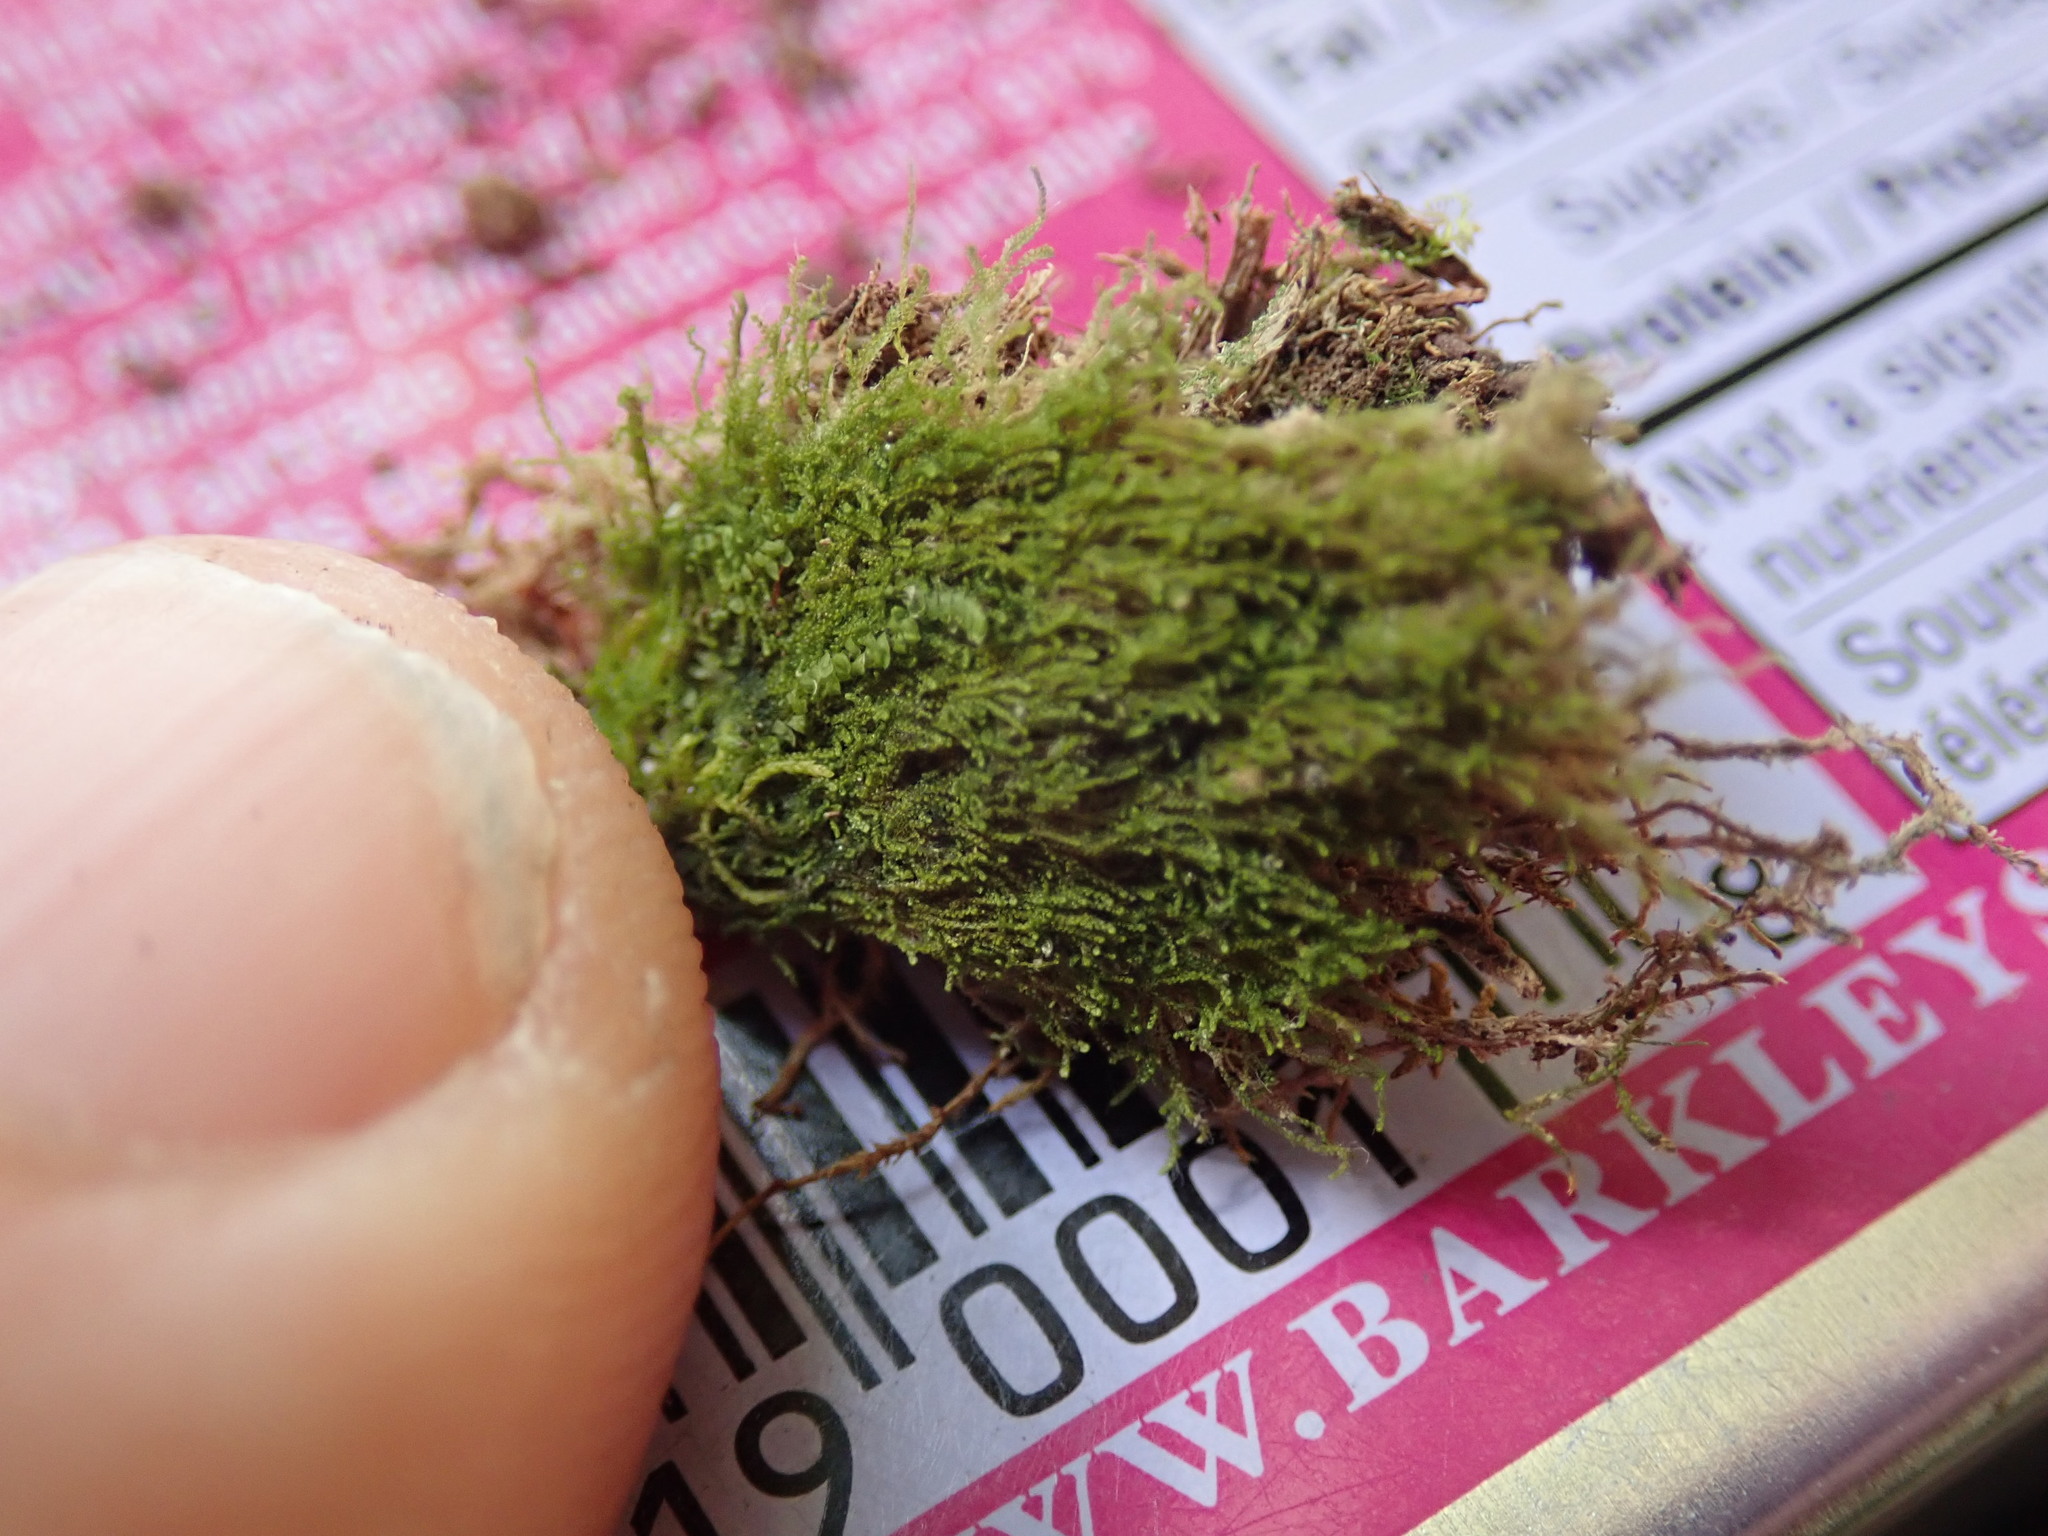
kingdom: Plantae
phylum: Marchantiophyta
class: Jungermanniopsida
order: Jungermanniales
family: Cephaloziellaceae
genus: Cephaloziella
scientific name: Cephaloziella turneri
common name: Turner's threadwort
